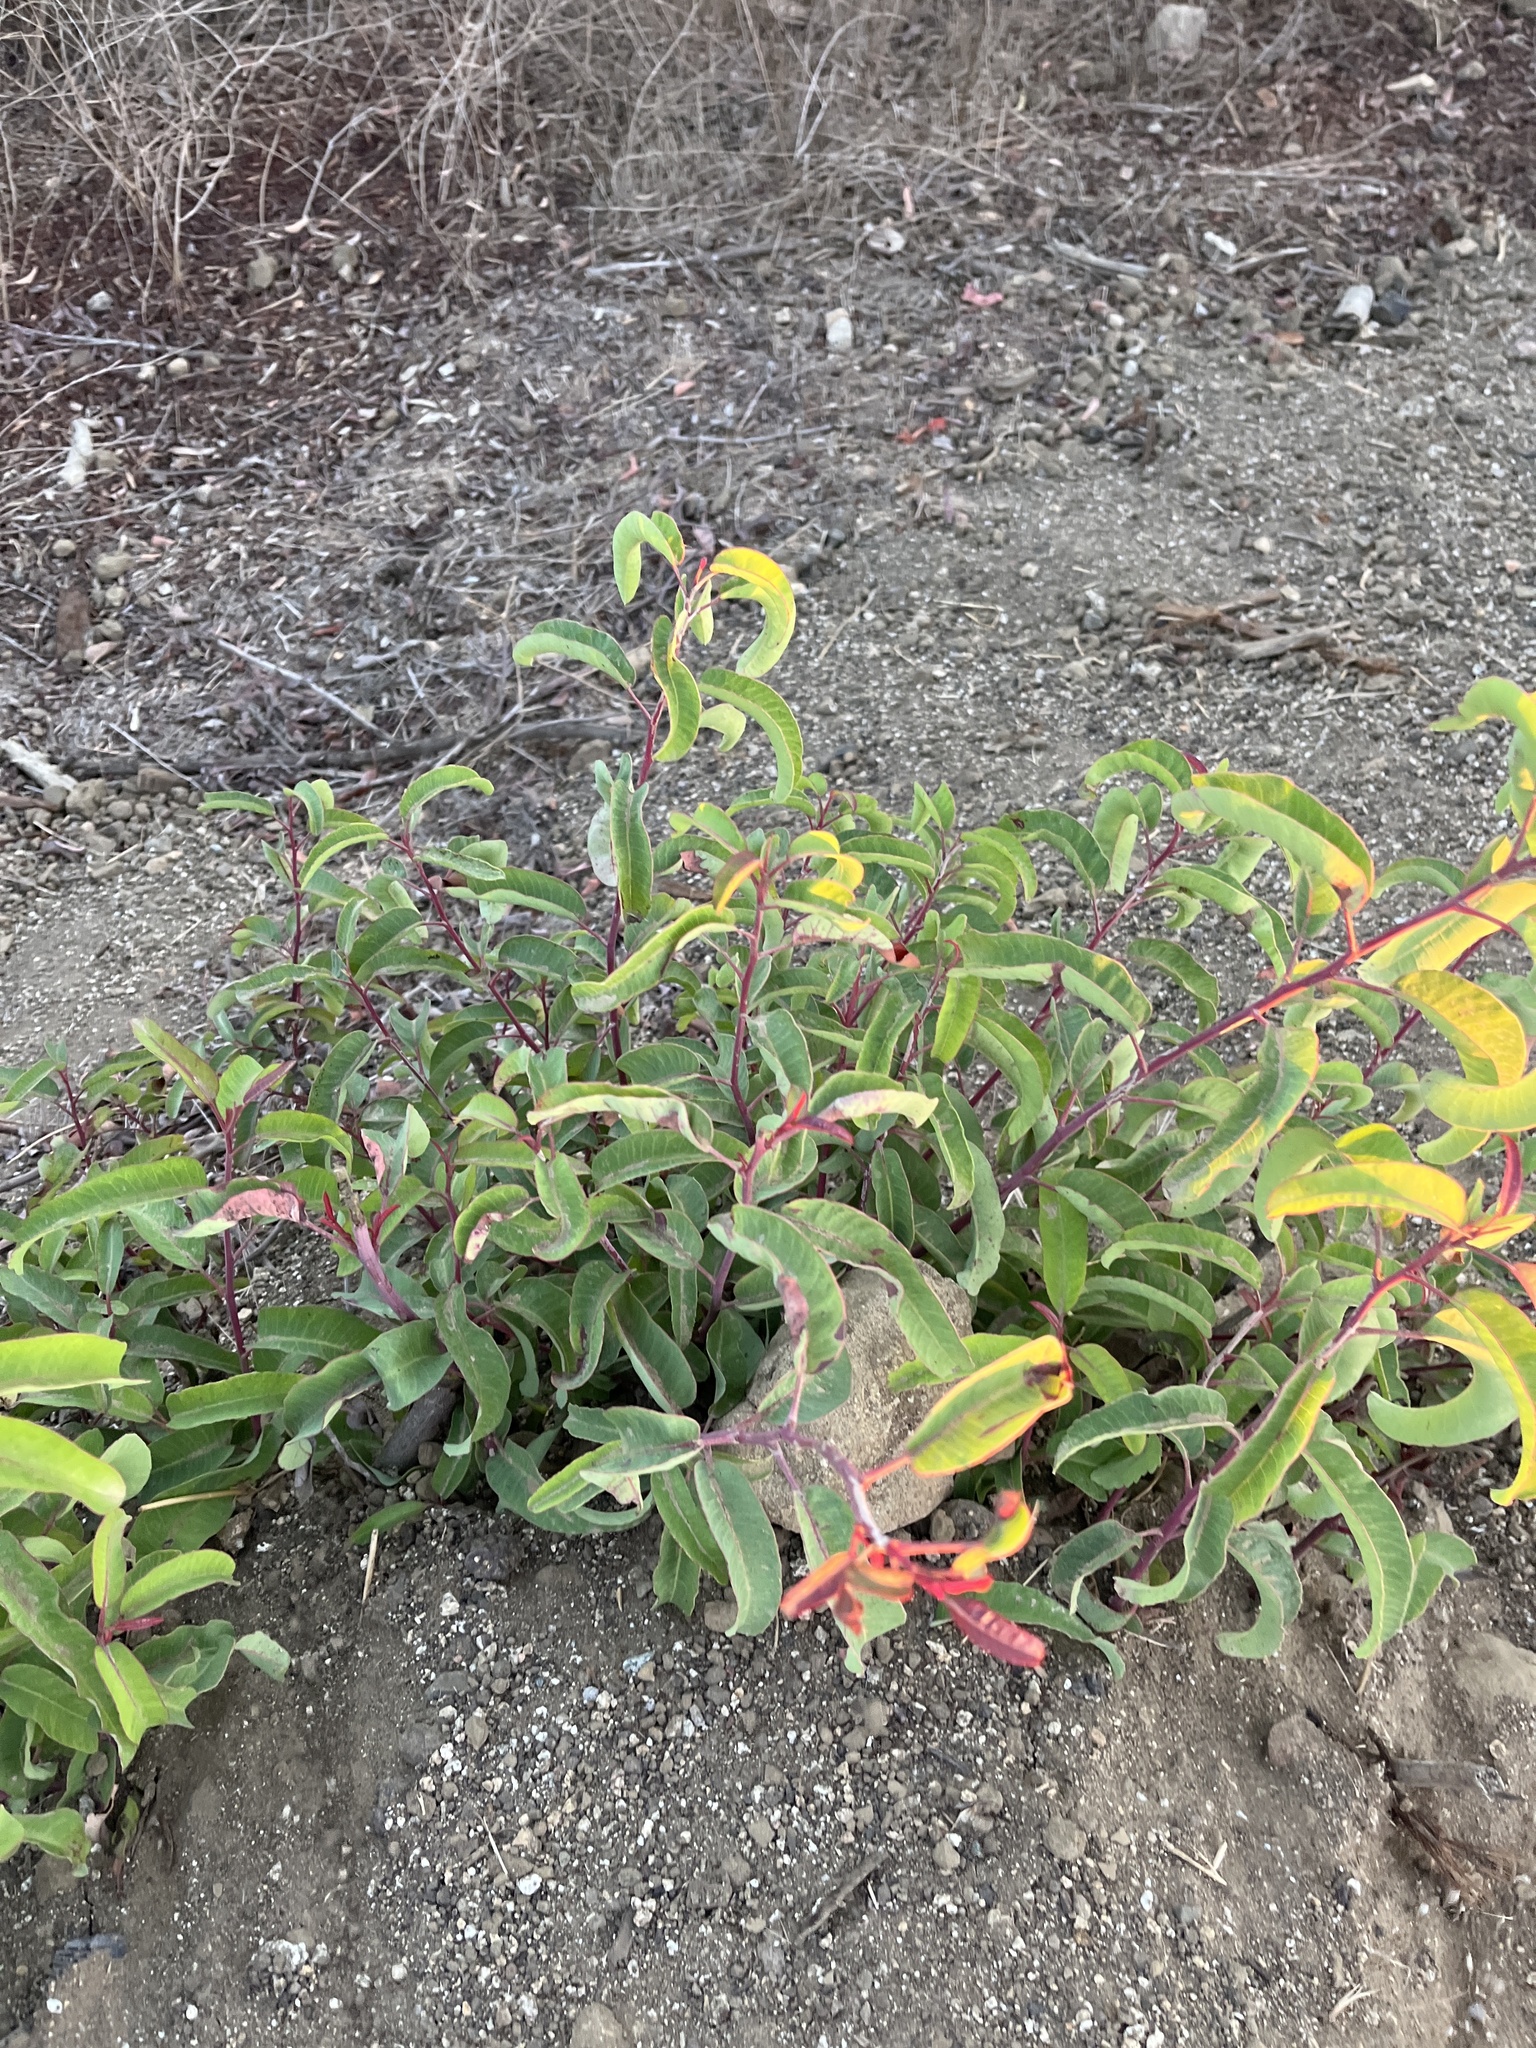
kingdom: Plantae
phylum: Tracheophyta
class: Magnoliopsida
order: Sapindales
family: Anacardiaceae
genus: Malosma
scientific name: Malosma laurina
